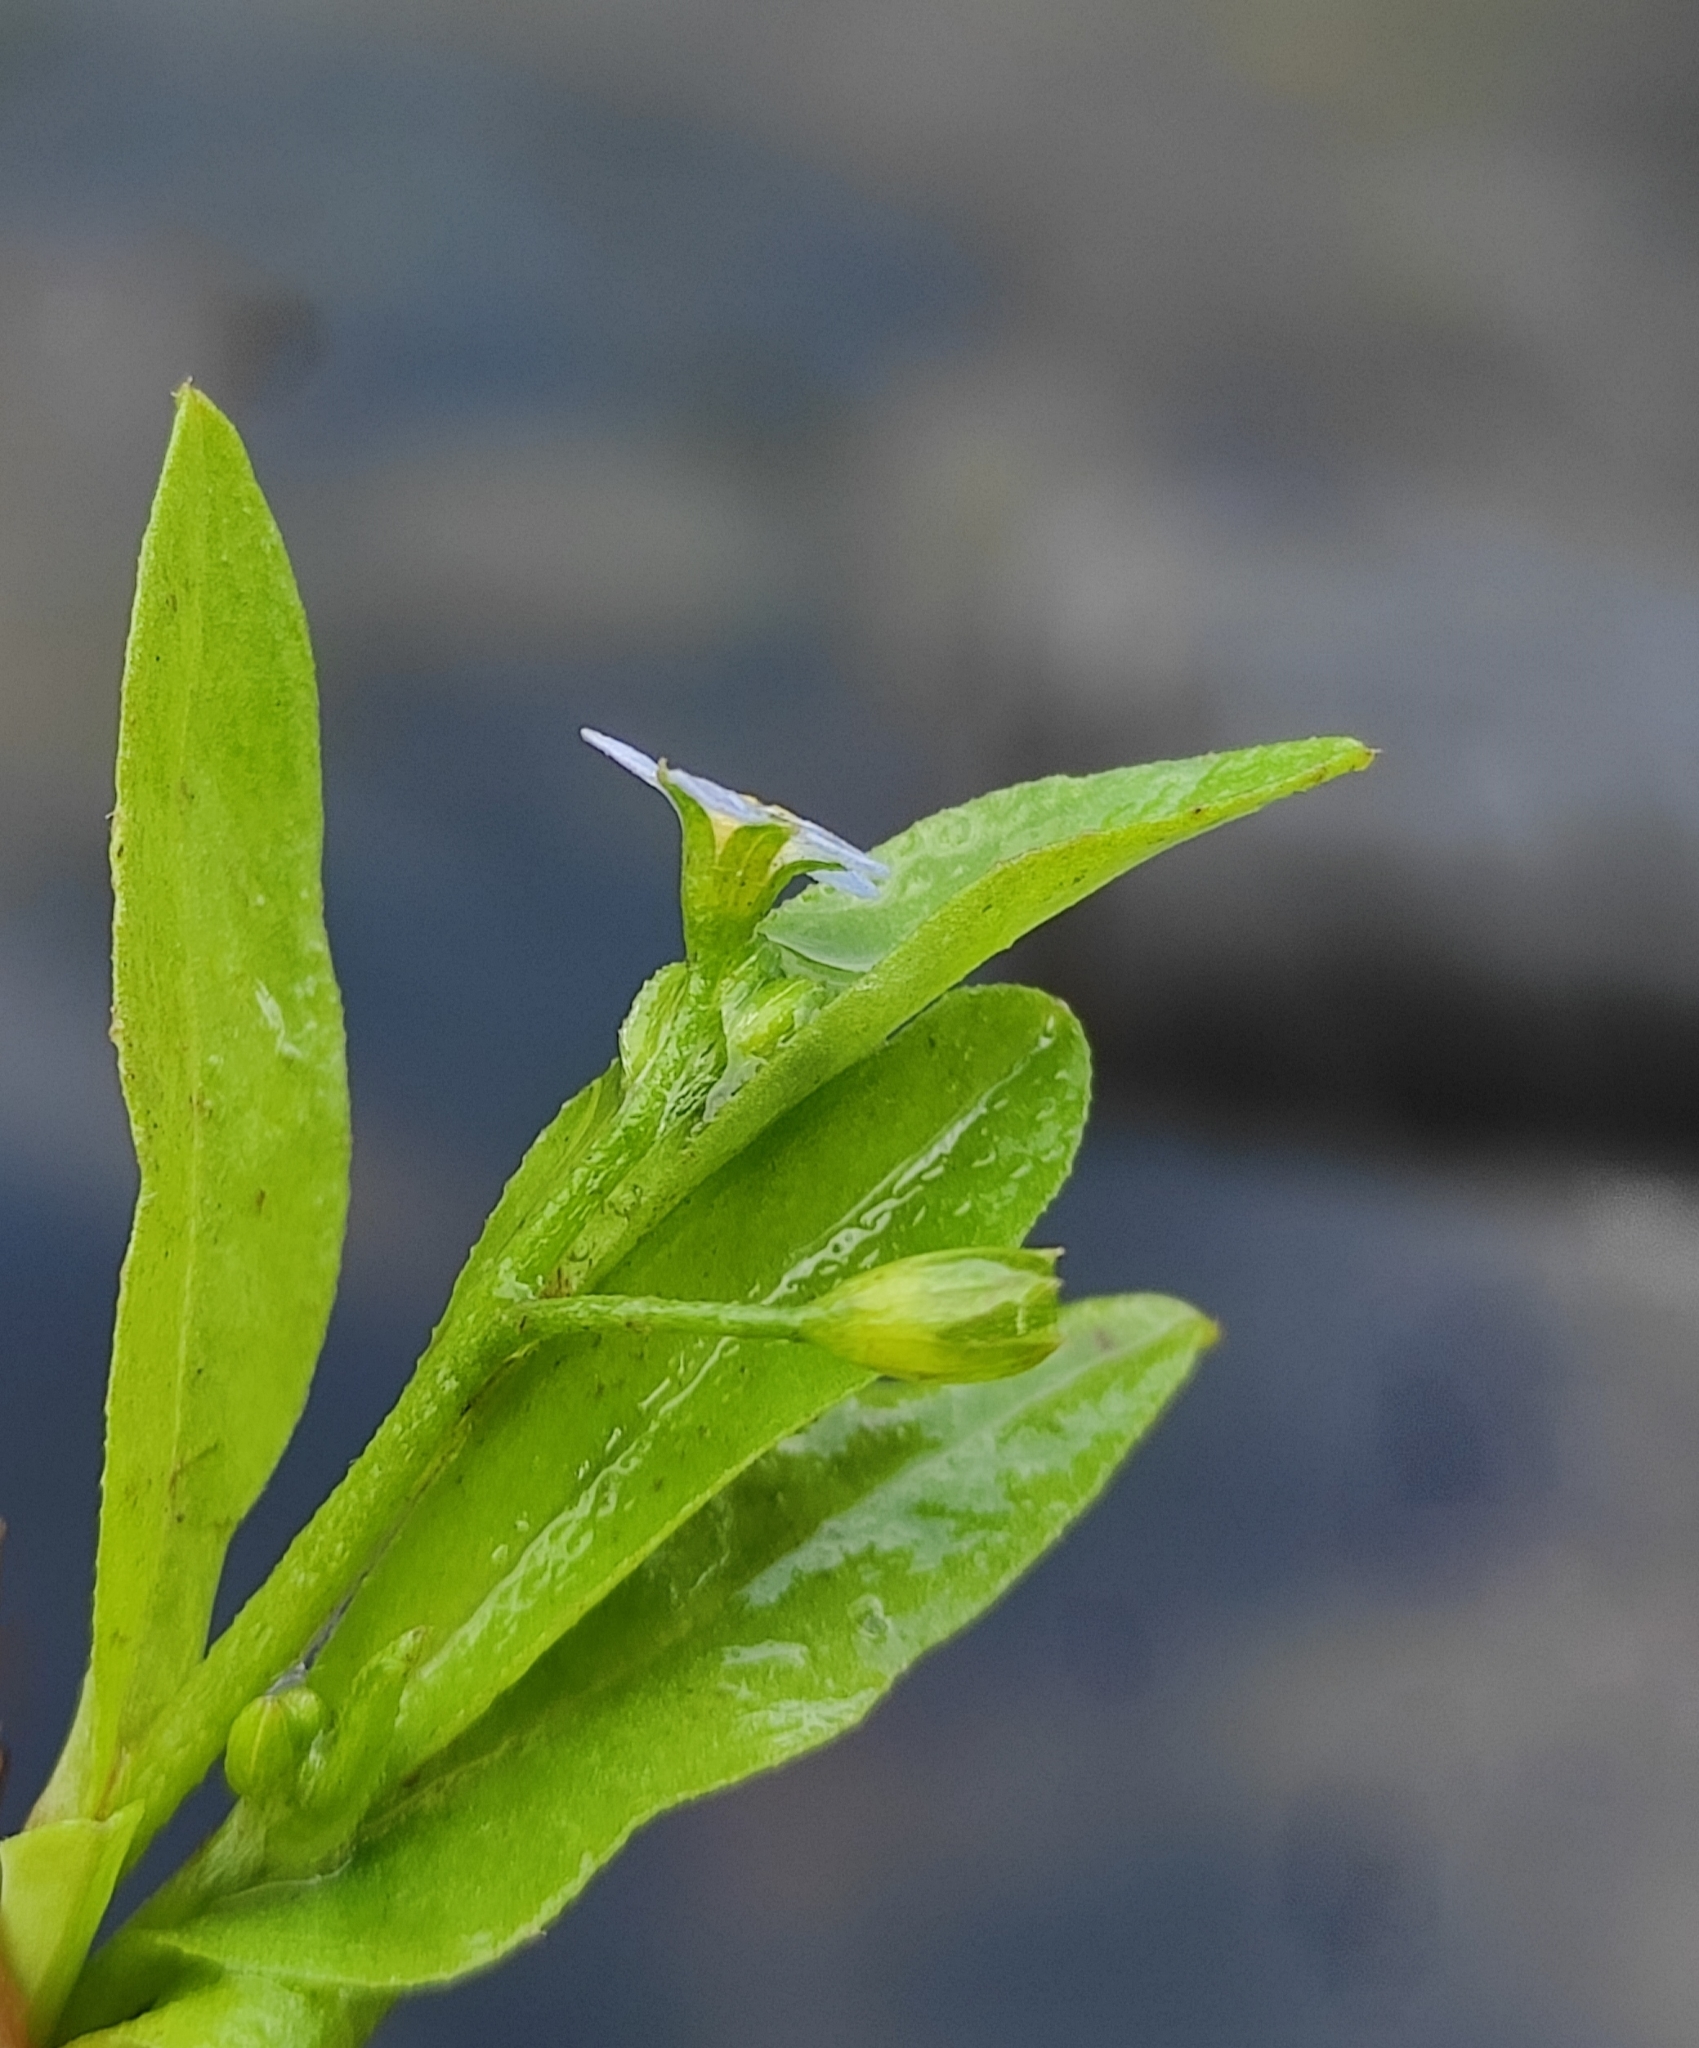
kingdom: Plantae
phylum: Tracheophyta
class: Magnoliopsida
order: Boraginales
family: Boraginaceae
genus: Myosotis
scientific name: Myosotis scorpioides
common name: Water forget-me-not
